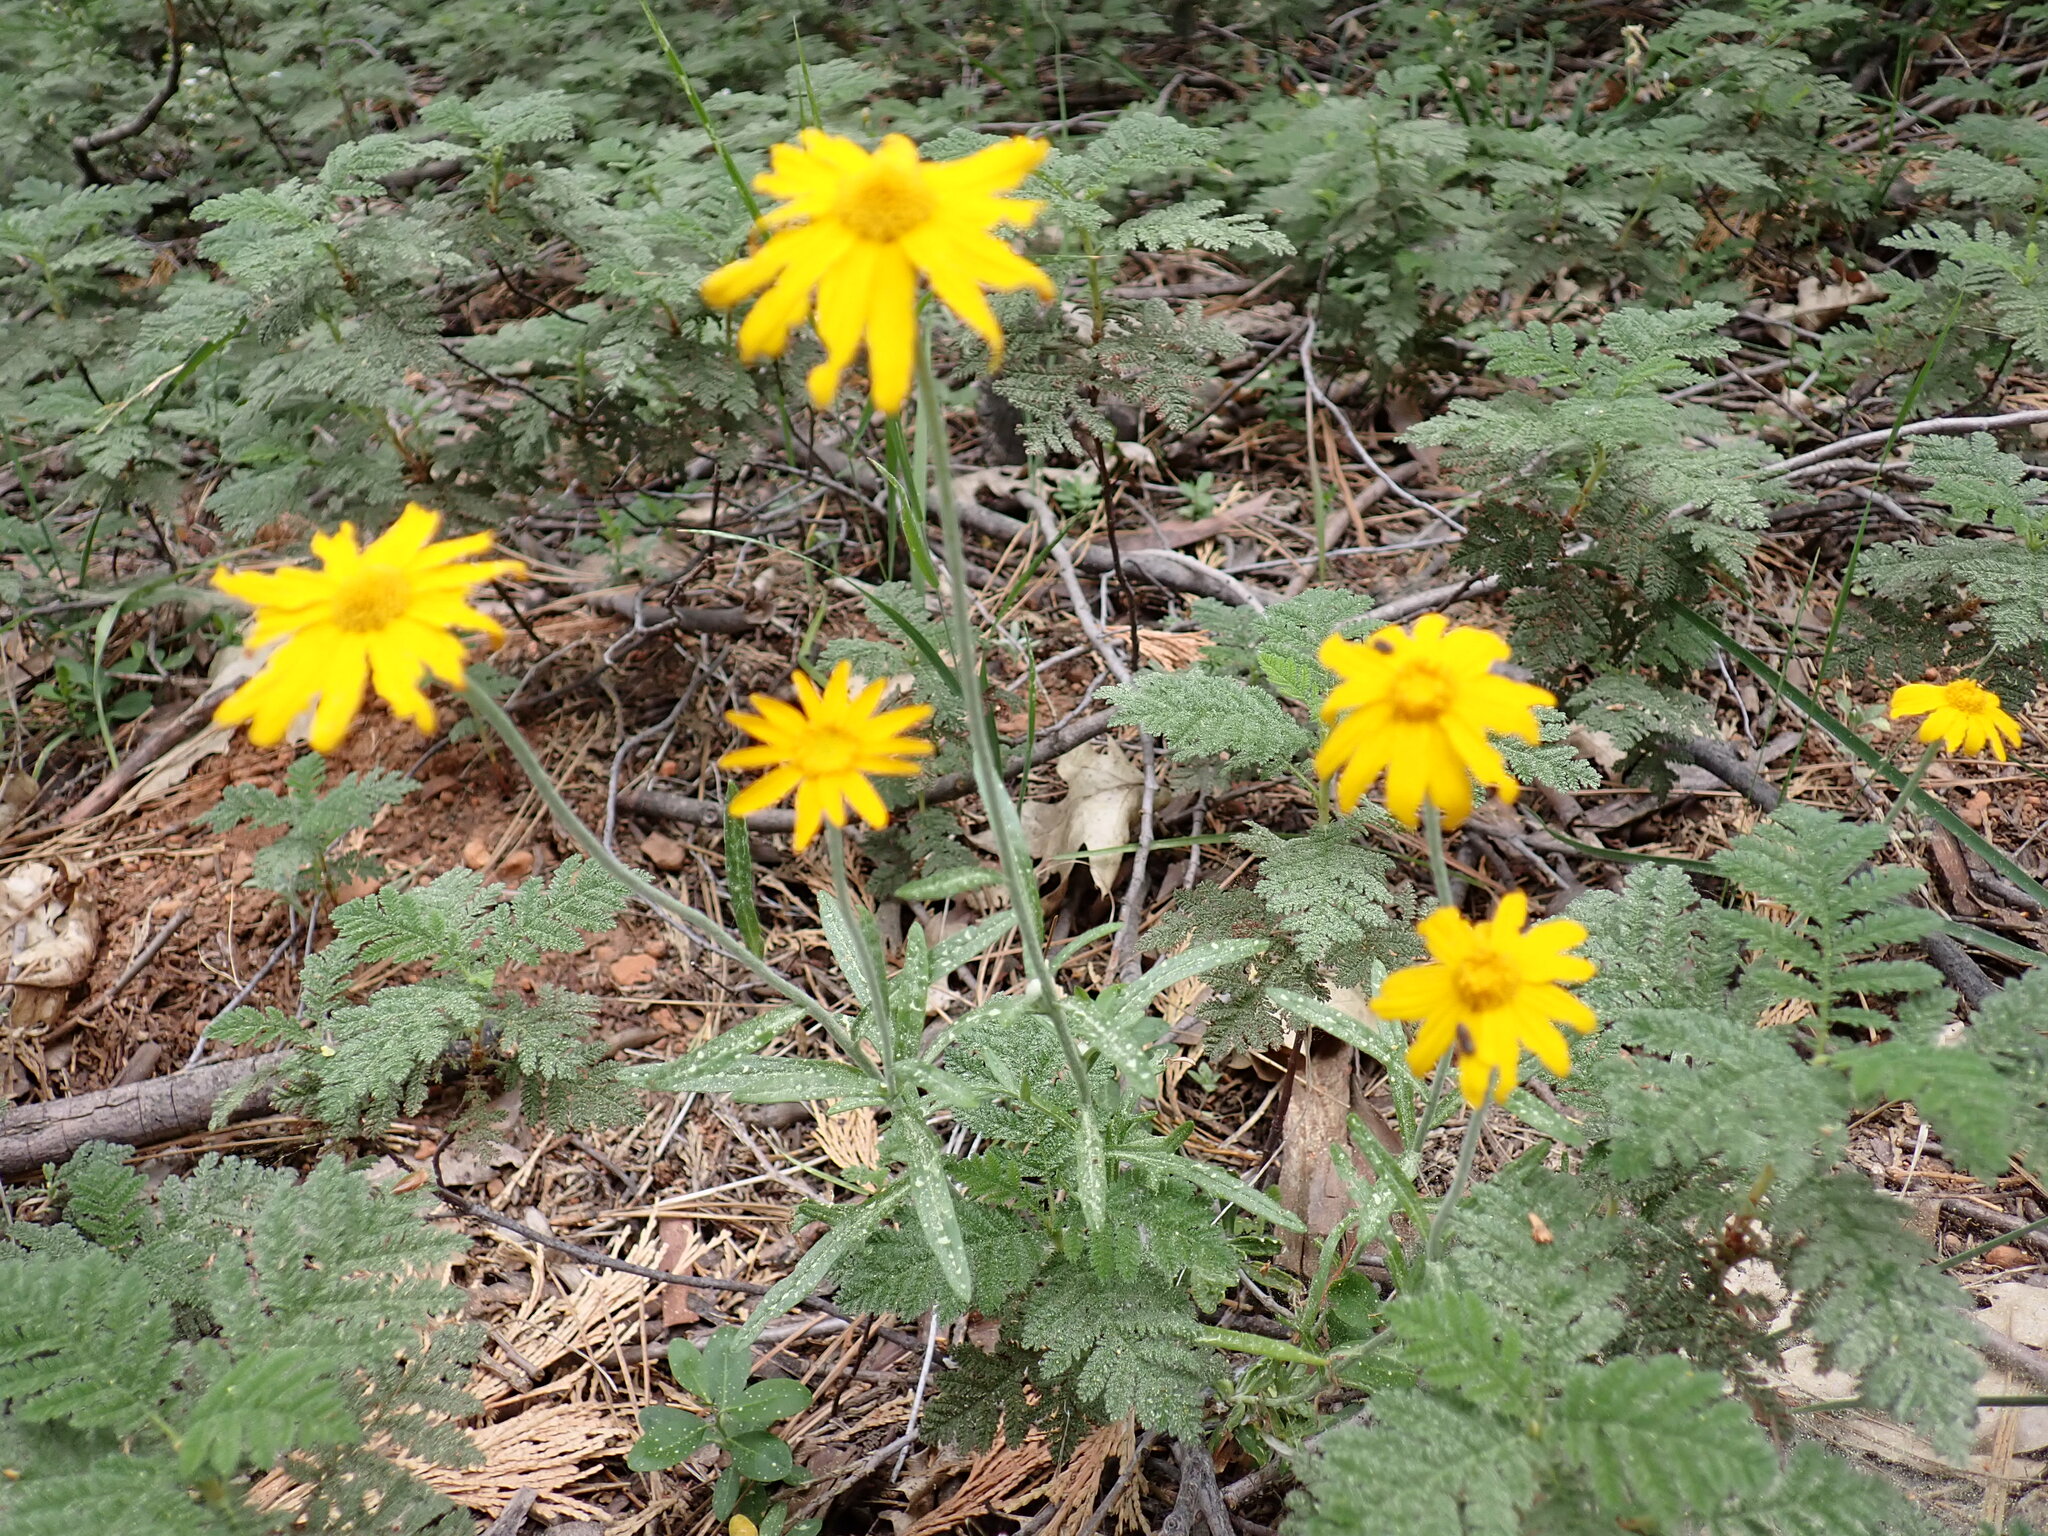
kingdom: Plantae
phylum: Tracheophyta
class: Magnoliopsida
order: Asterales
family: Asteraceae
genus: Eriophyllum
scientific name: Eriophyllum lanatum
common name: Common woolly-sunflower
